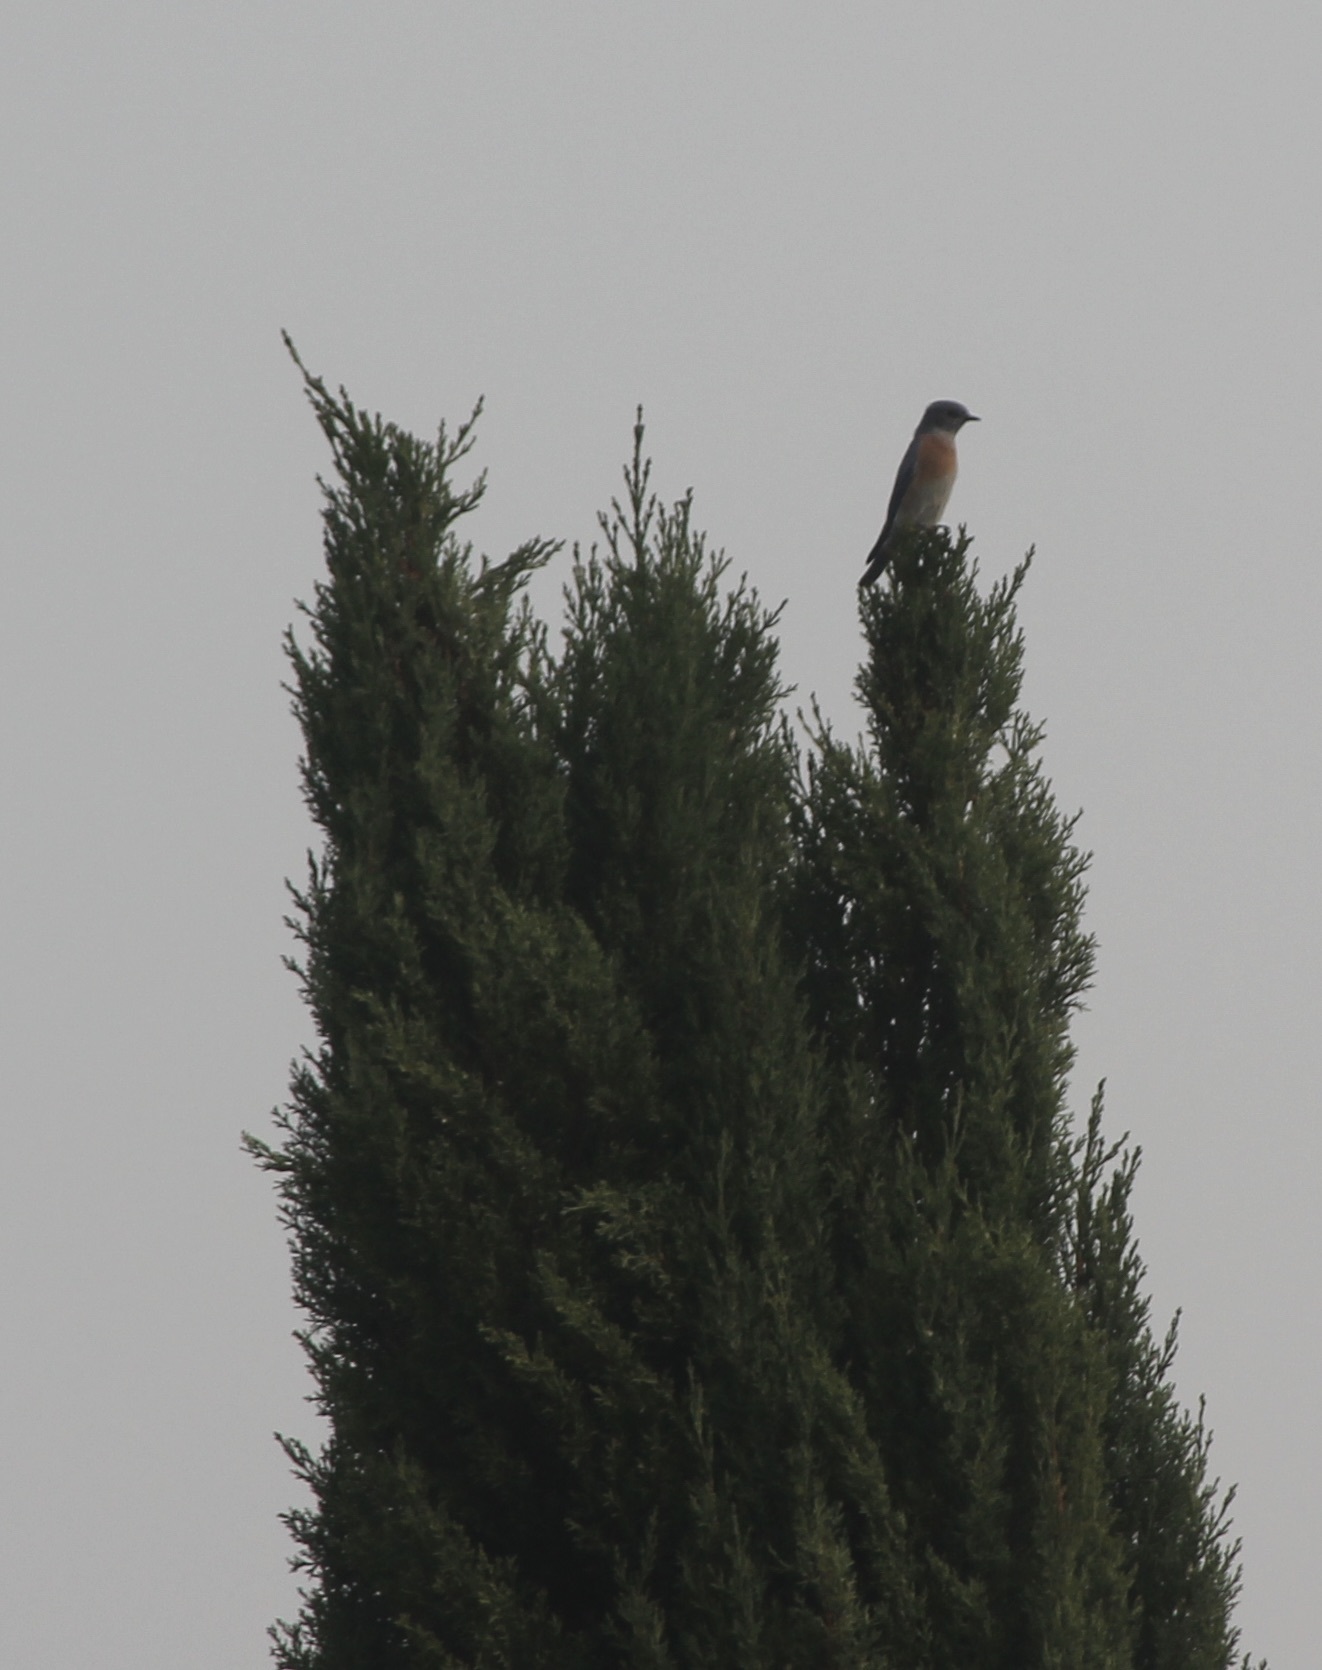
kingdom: Animalia
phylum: Chordata
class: Aves
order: Passeriformes
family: Turdidae
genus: Sialia
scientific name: Sialia mexicana
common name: Western bluebird
